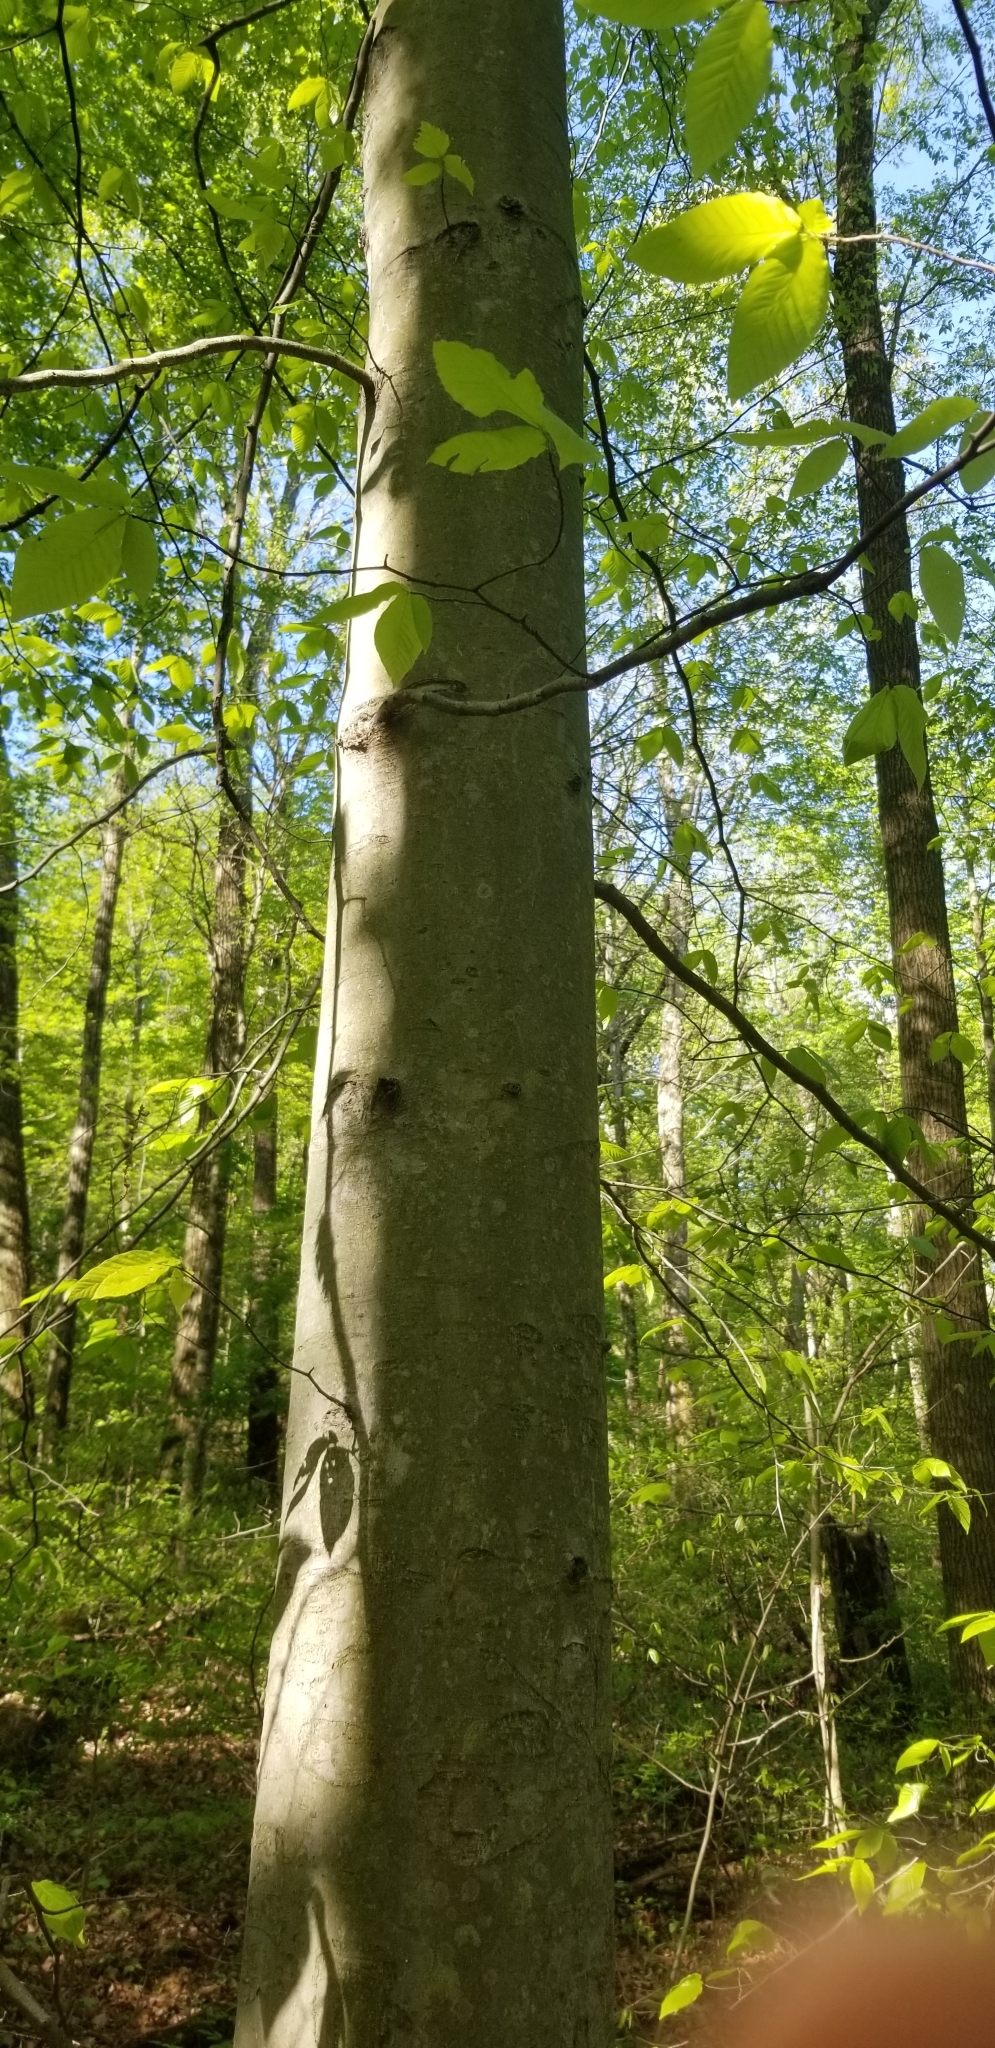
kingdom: Plantae
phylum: Tracheophyta
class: Magnoliopsida
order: Fagales
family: Fagaceae
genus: Fagus
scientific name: Fagus grandifolia
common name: American beech
